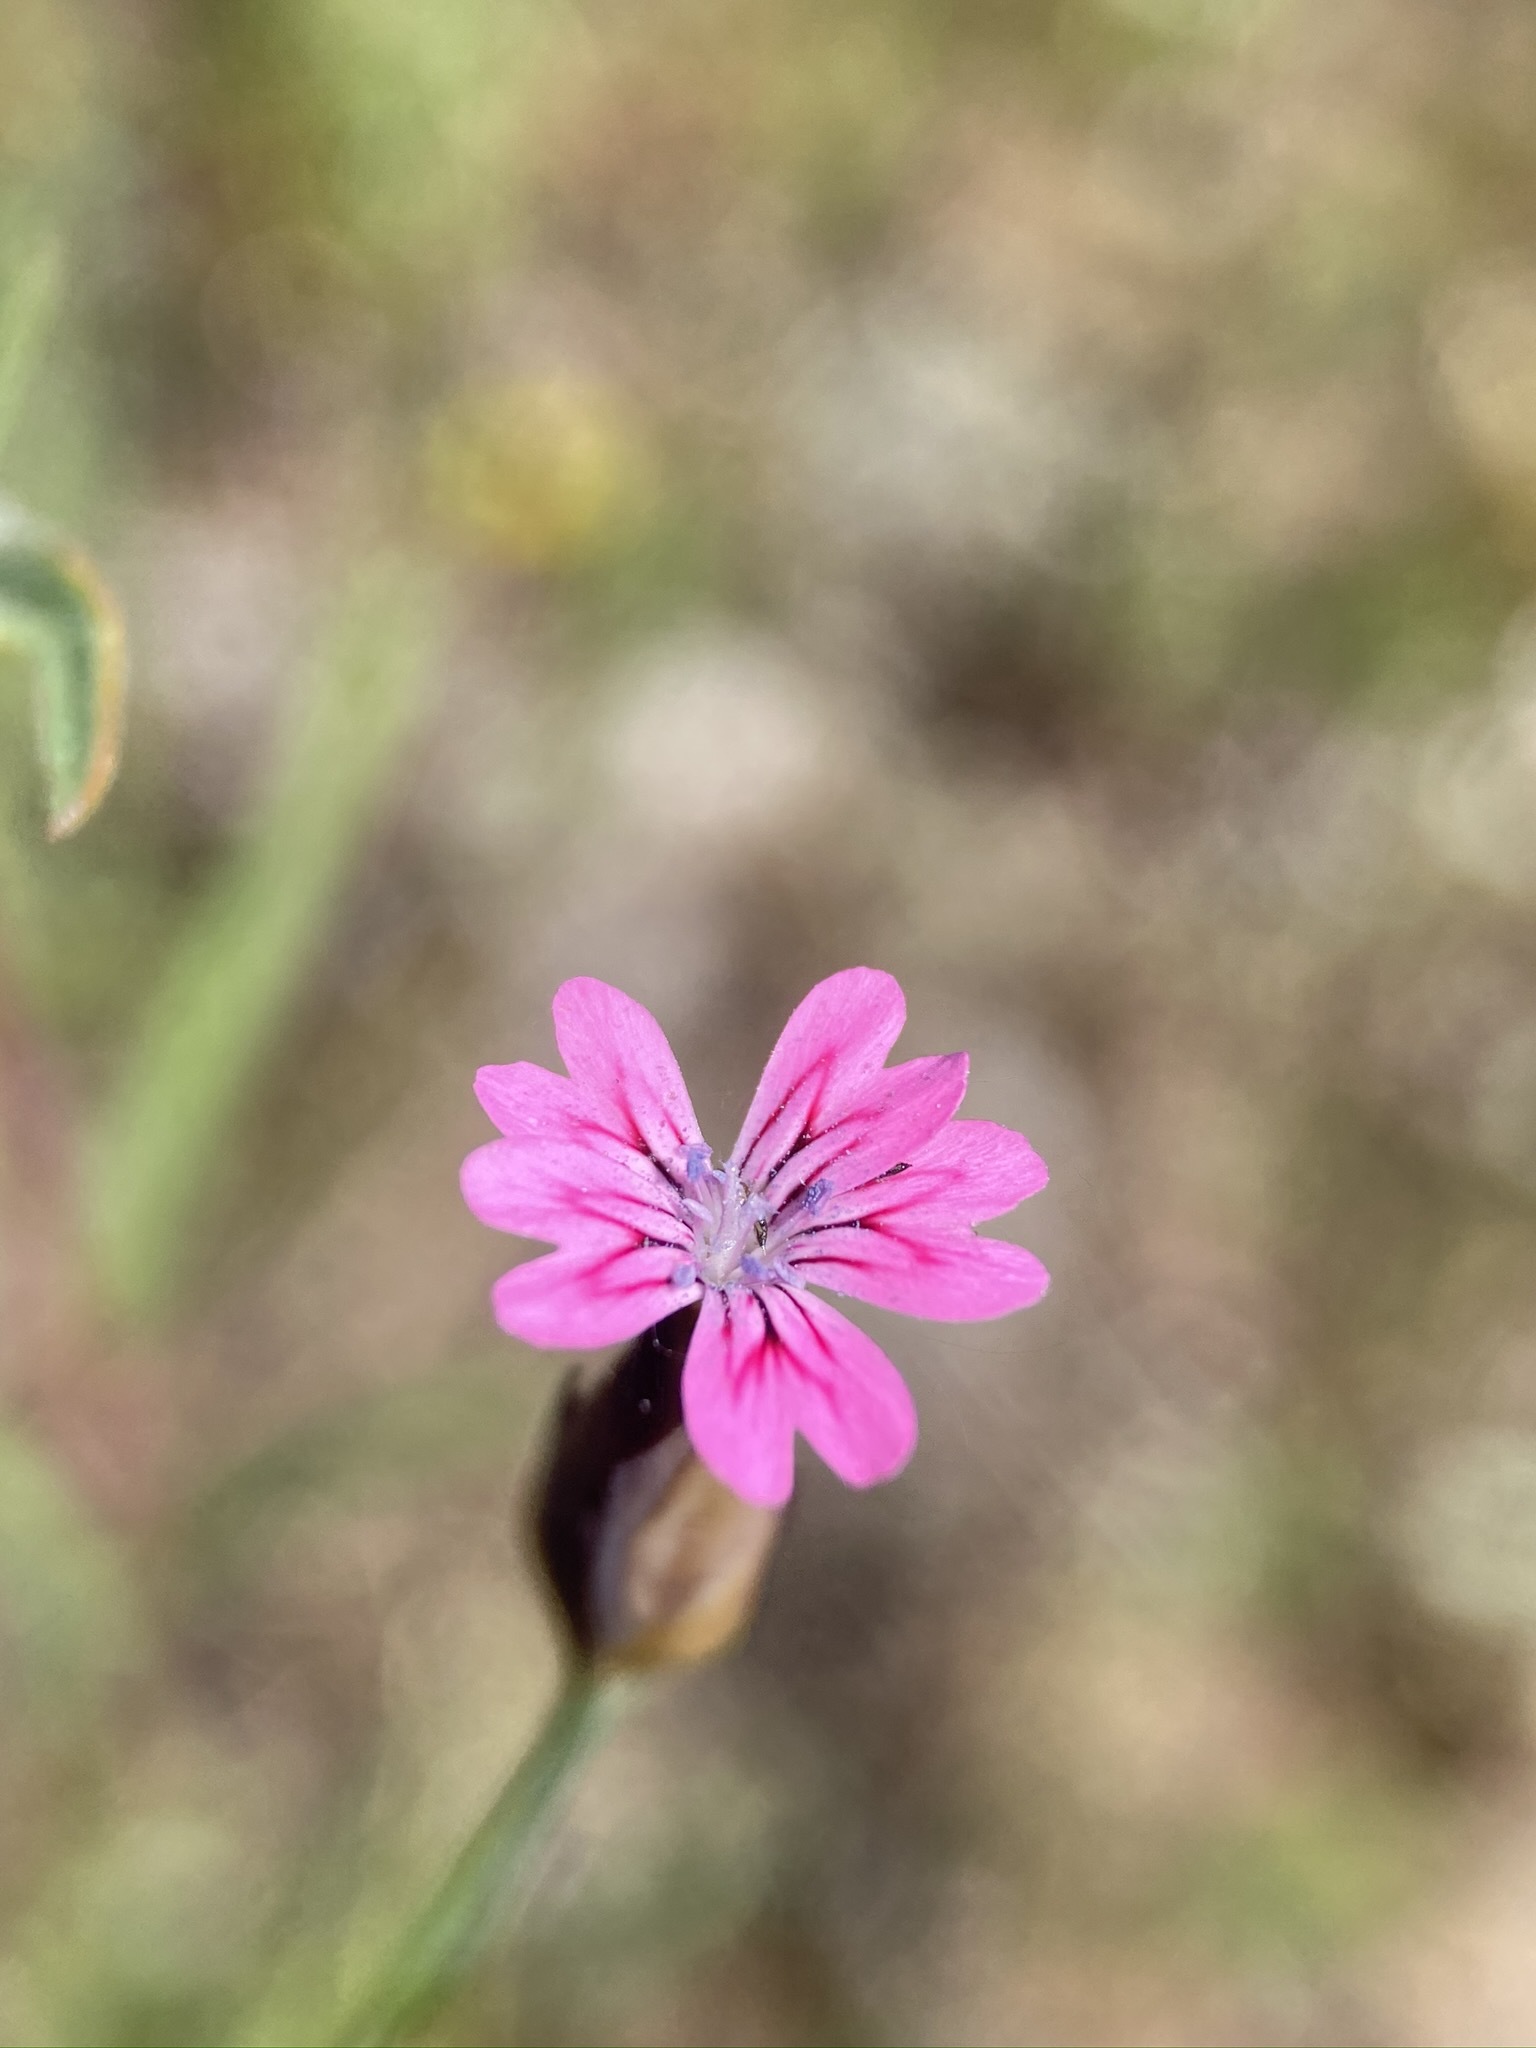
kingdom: Plantae
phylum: Tracheophyta
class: Magnoliopsida
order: Caryophyllales
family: Caryophyllaceae
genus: Petrorhagia
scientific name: Petrorhagia dubia
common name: Hairypink
